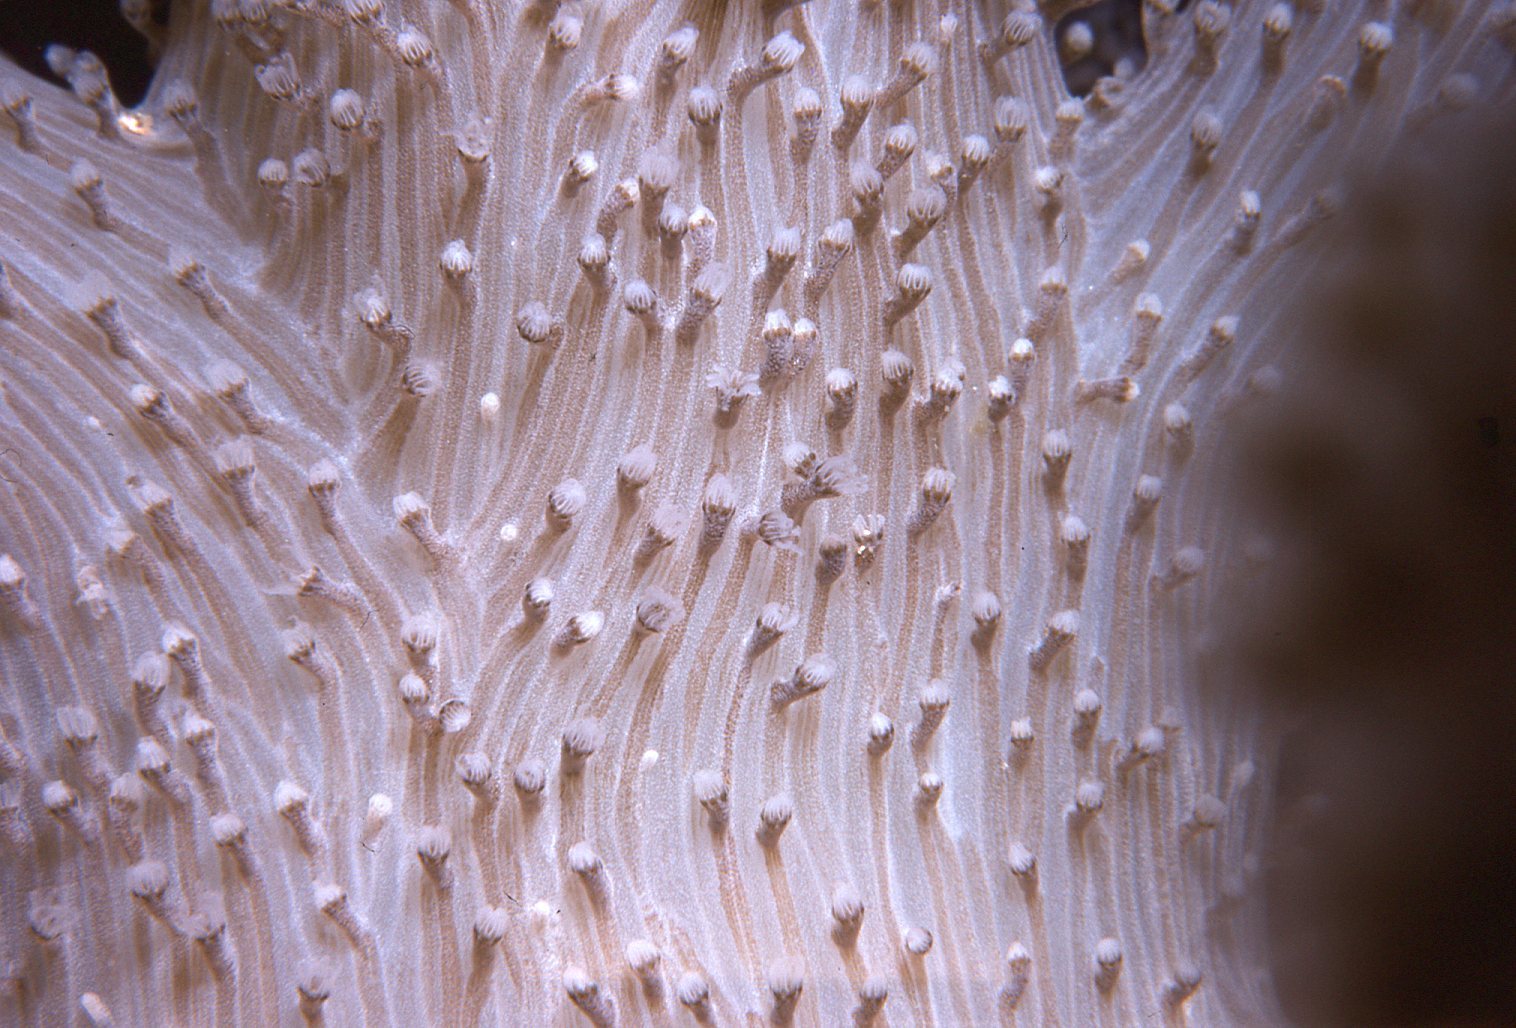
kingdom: Animalia
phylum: Cnidaria
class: Anthozoa
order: Malacalcyonacea
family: Capnellidae
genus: Capnella
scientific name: Capnella gaboensis
